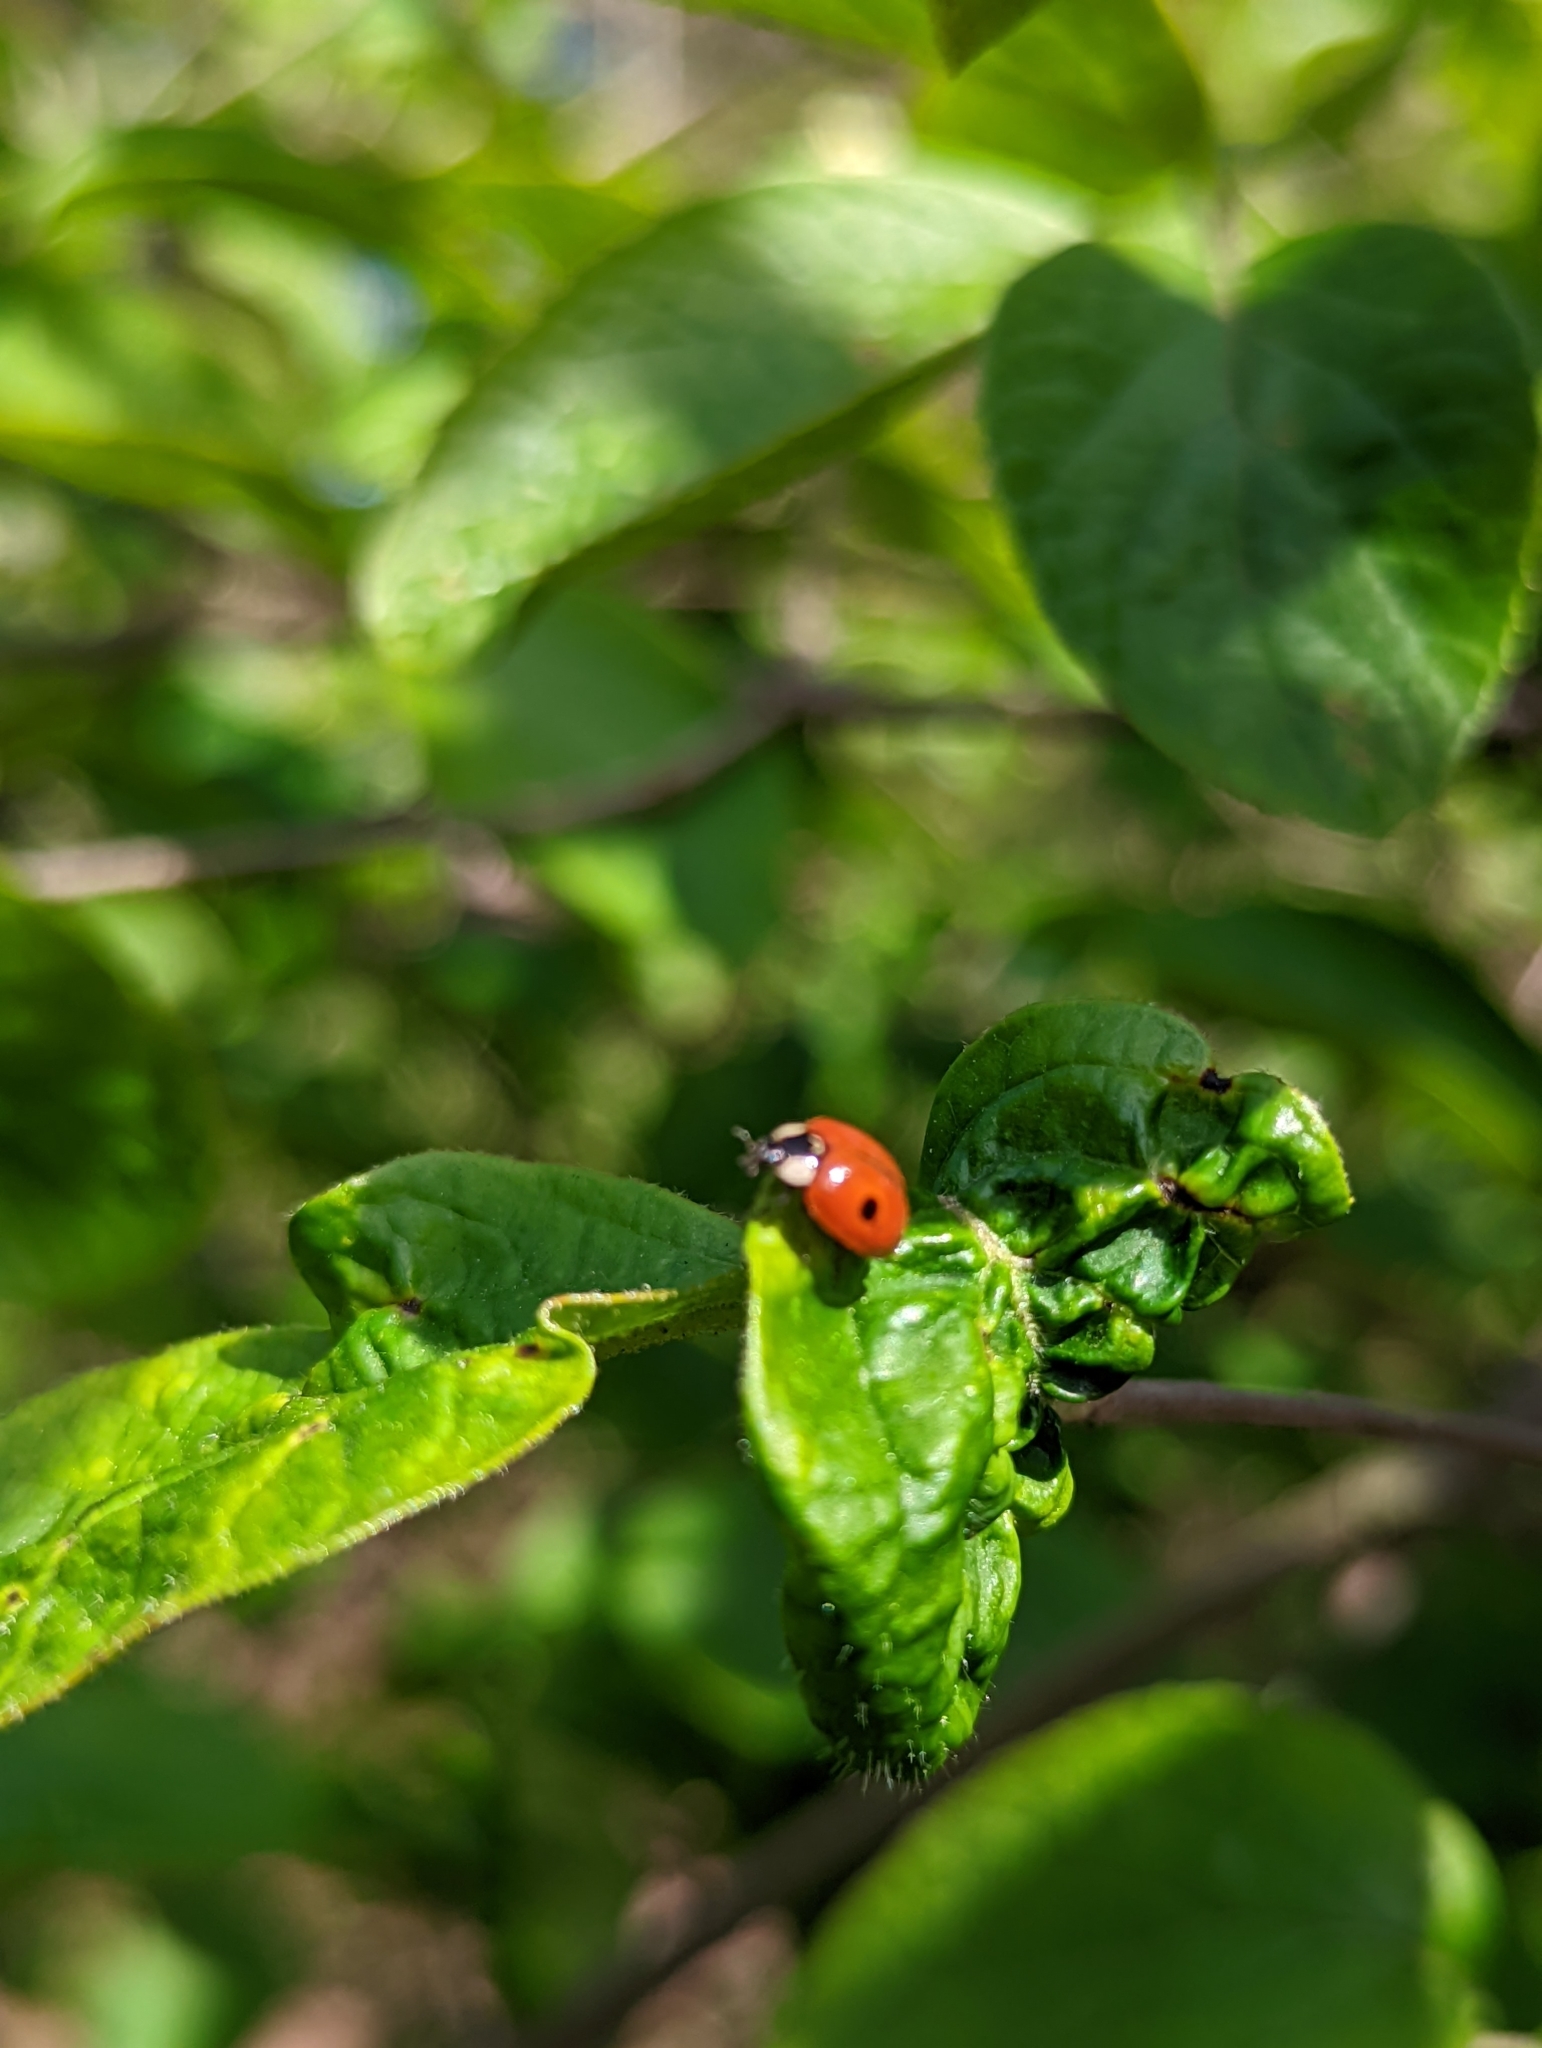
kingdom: Animalia
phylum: Arthropoda
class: Insecta
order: Coleoptera
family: Coccinellidae
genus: Adalia
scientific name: Adalia bipunctata
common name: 2-spot ladybird
